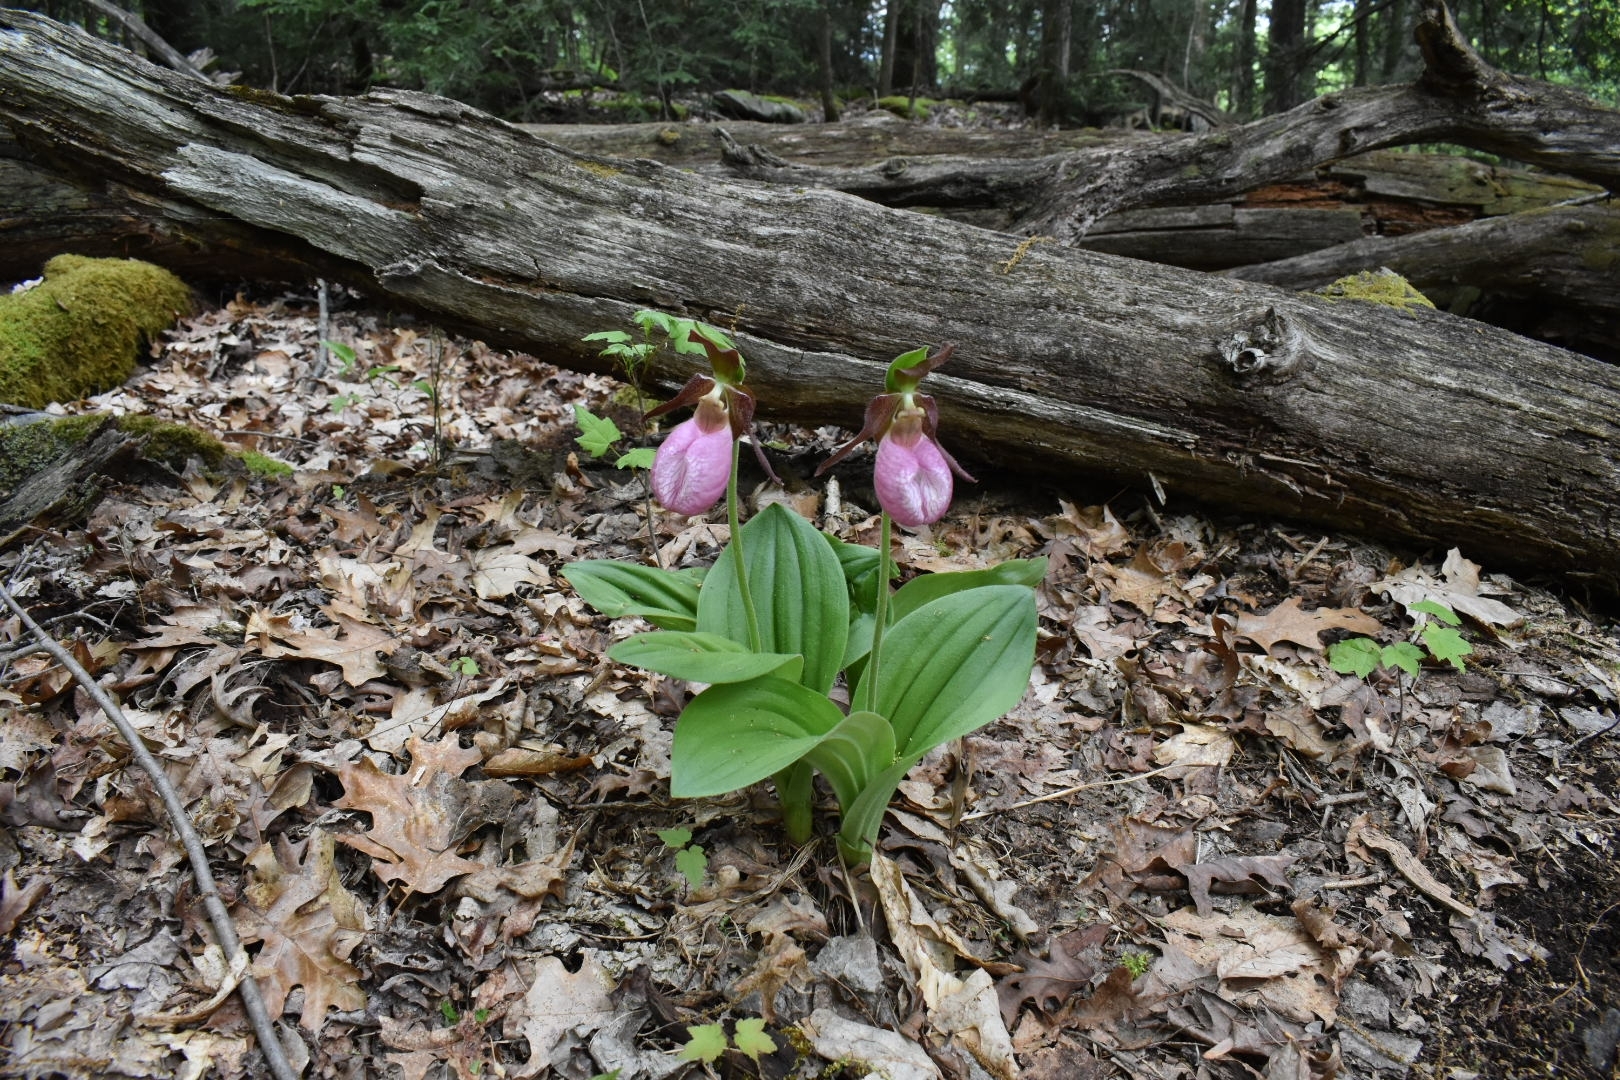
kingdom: Plantae
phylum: Tracheophyta
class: Liliopsida
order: Asparagales
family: Orchidaceae
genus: Cypripedium
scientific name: Cypripedium acaule
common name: Pink lady's-slipper
